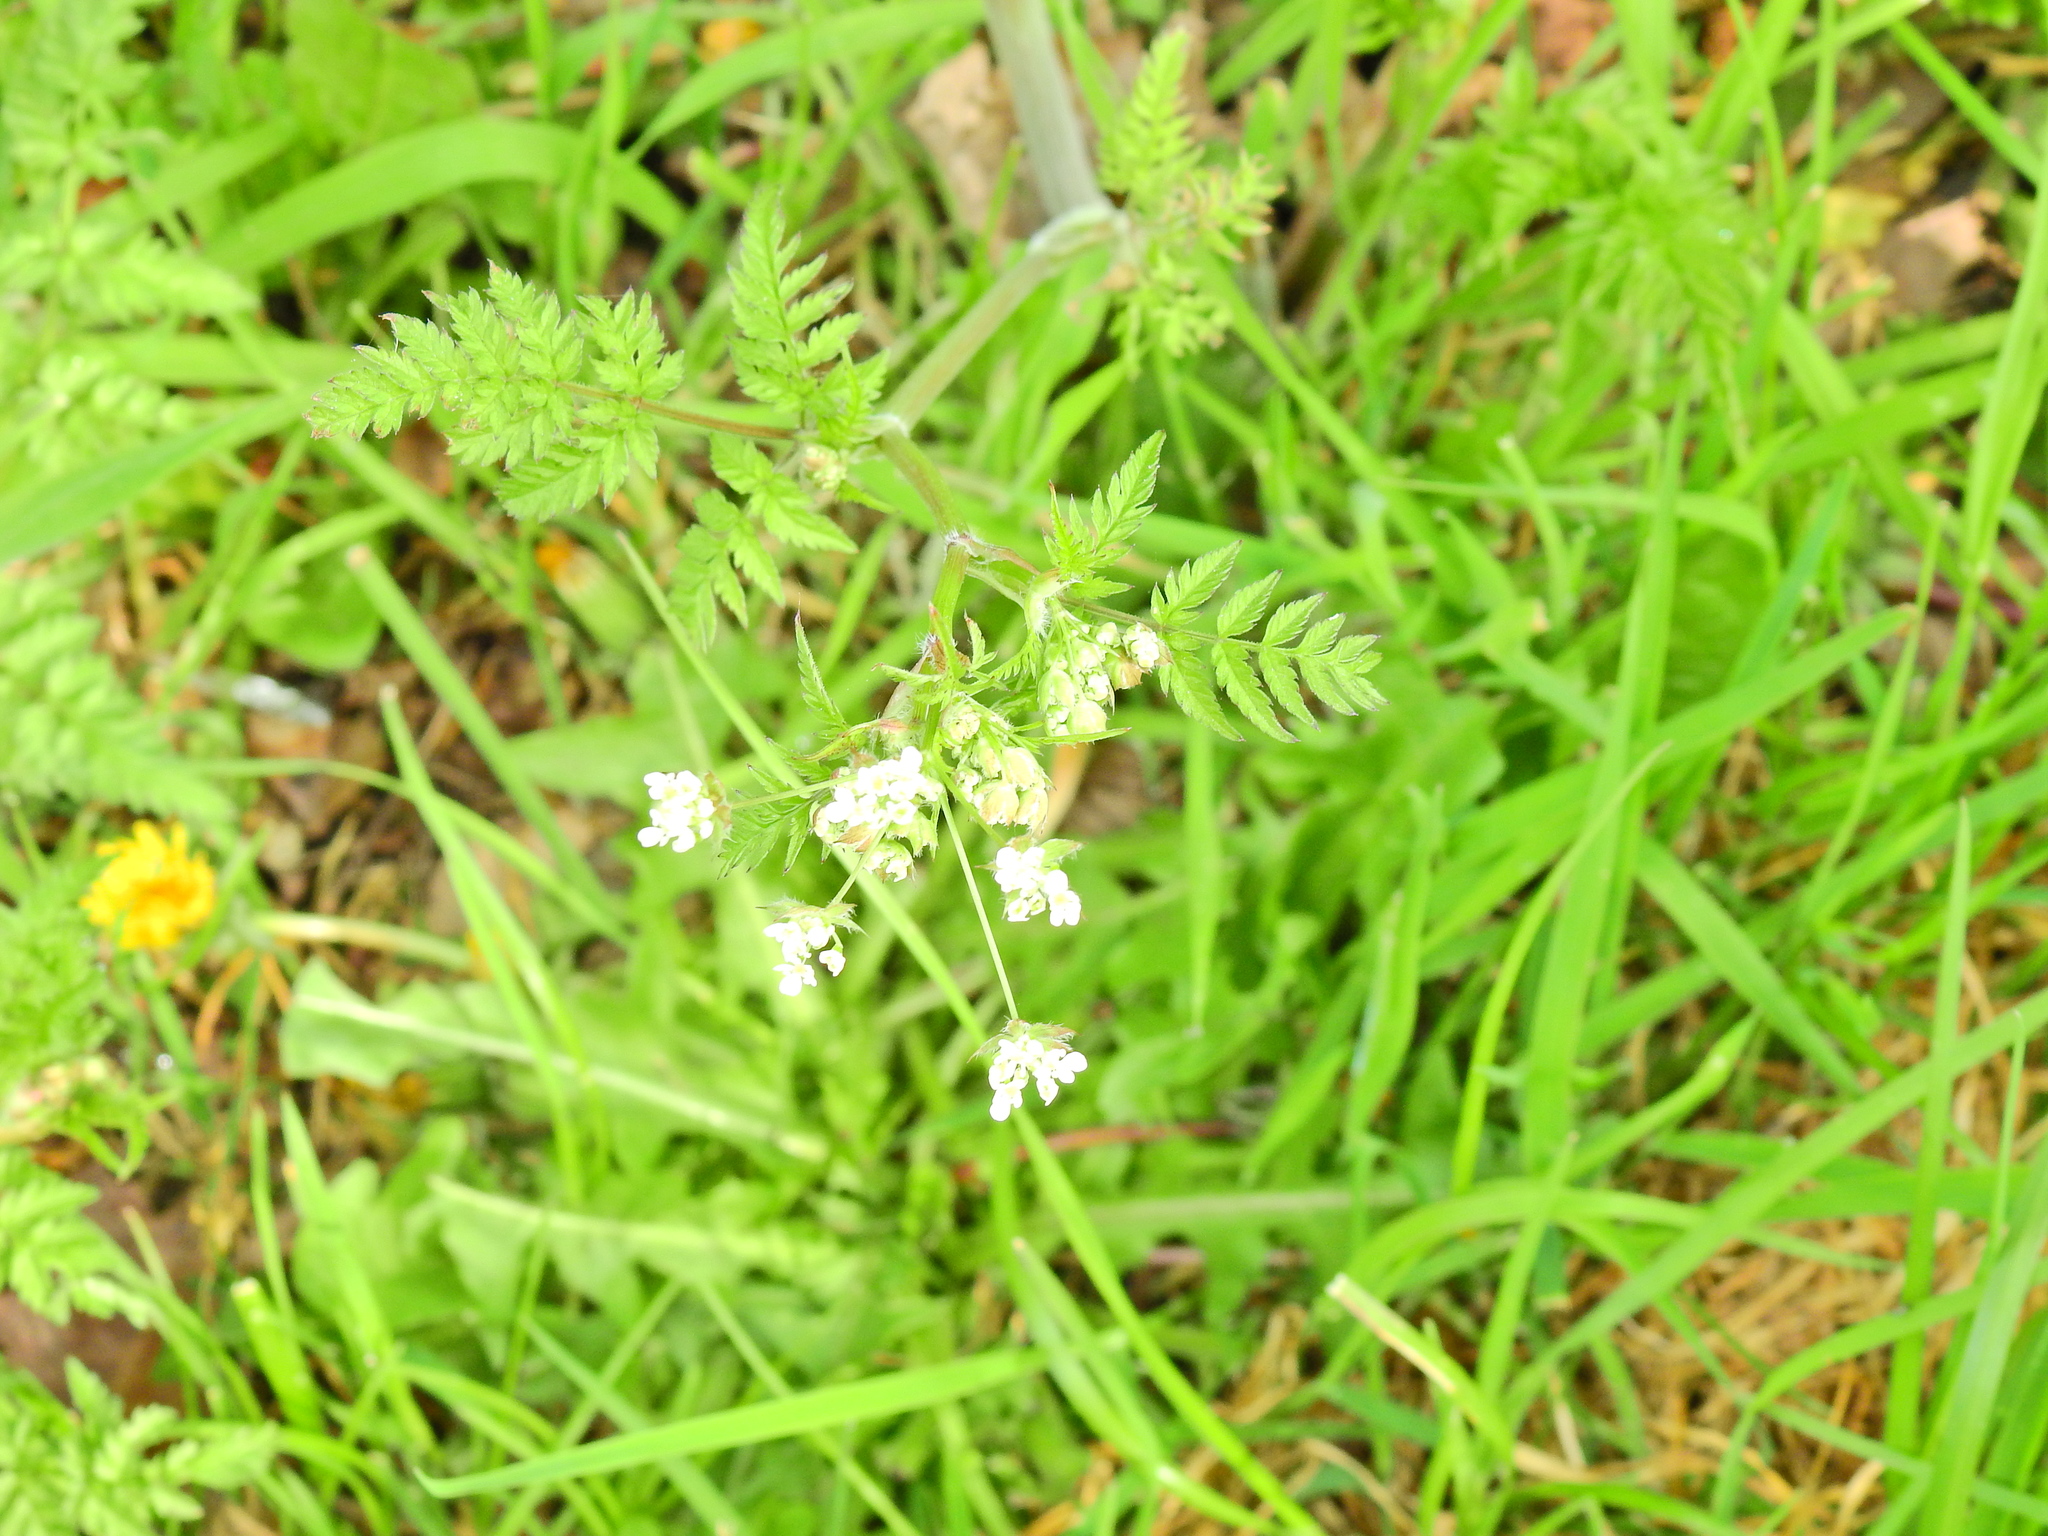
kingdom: Plantae
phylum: Tracheophyta
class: Magnoliopsida
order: Apiales
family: Apiaceae
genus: Anthriscus
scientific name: Anthriscus sylvestris
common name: Cow parsley
